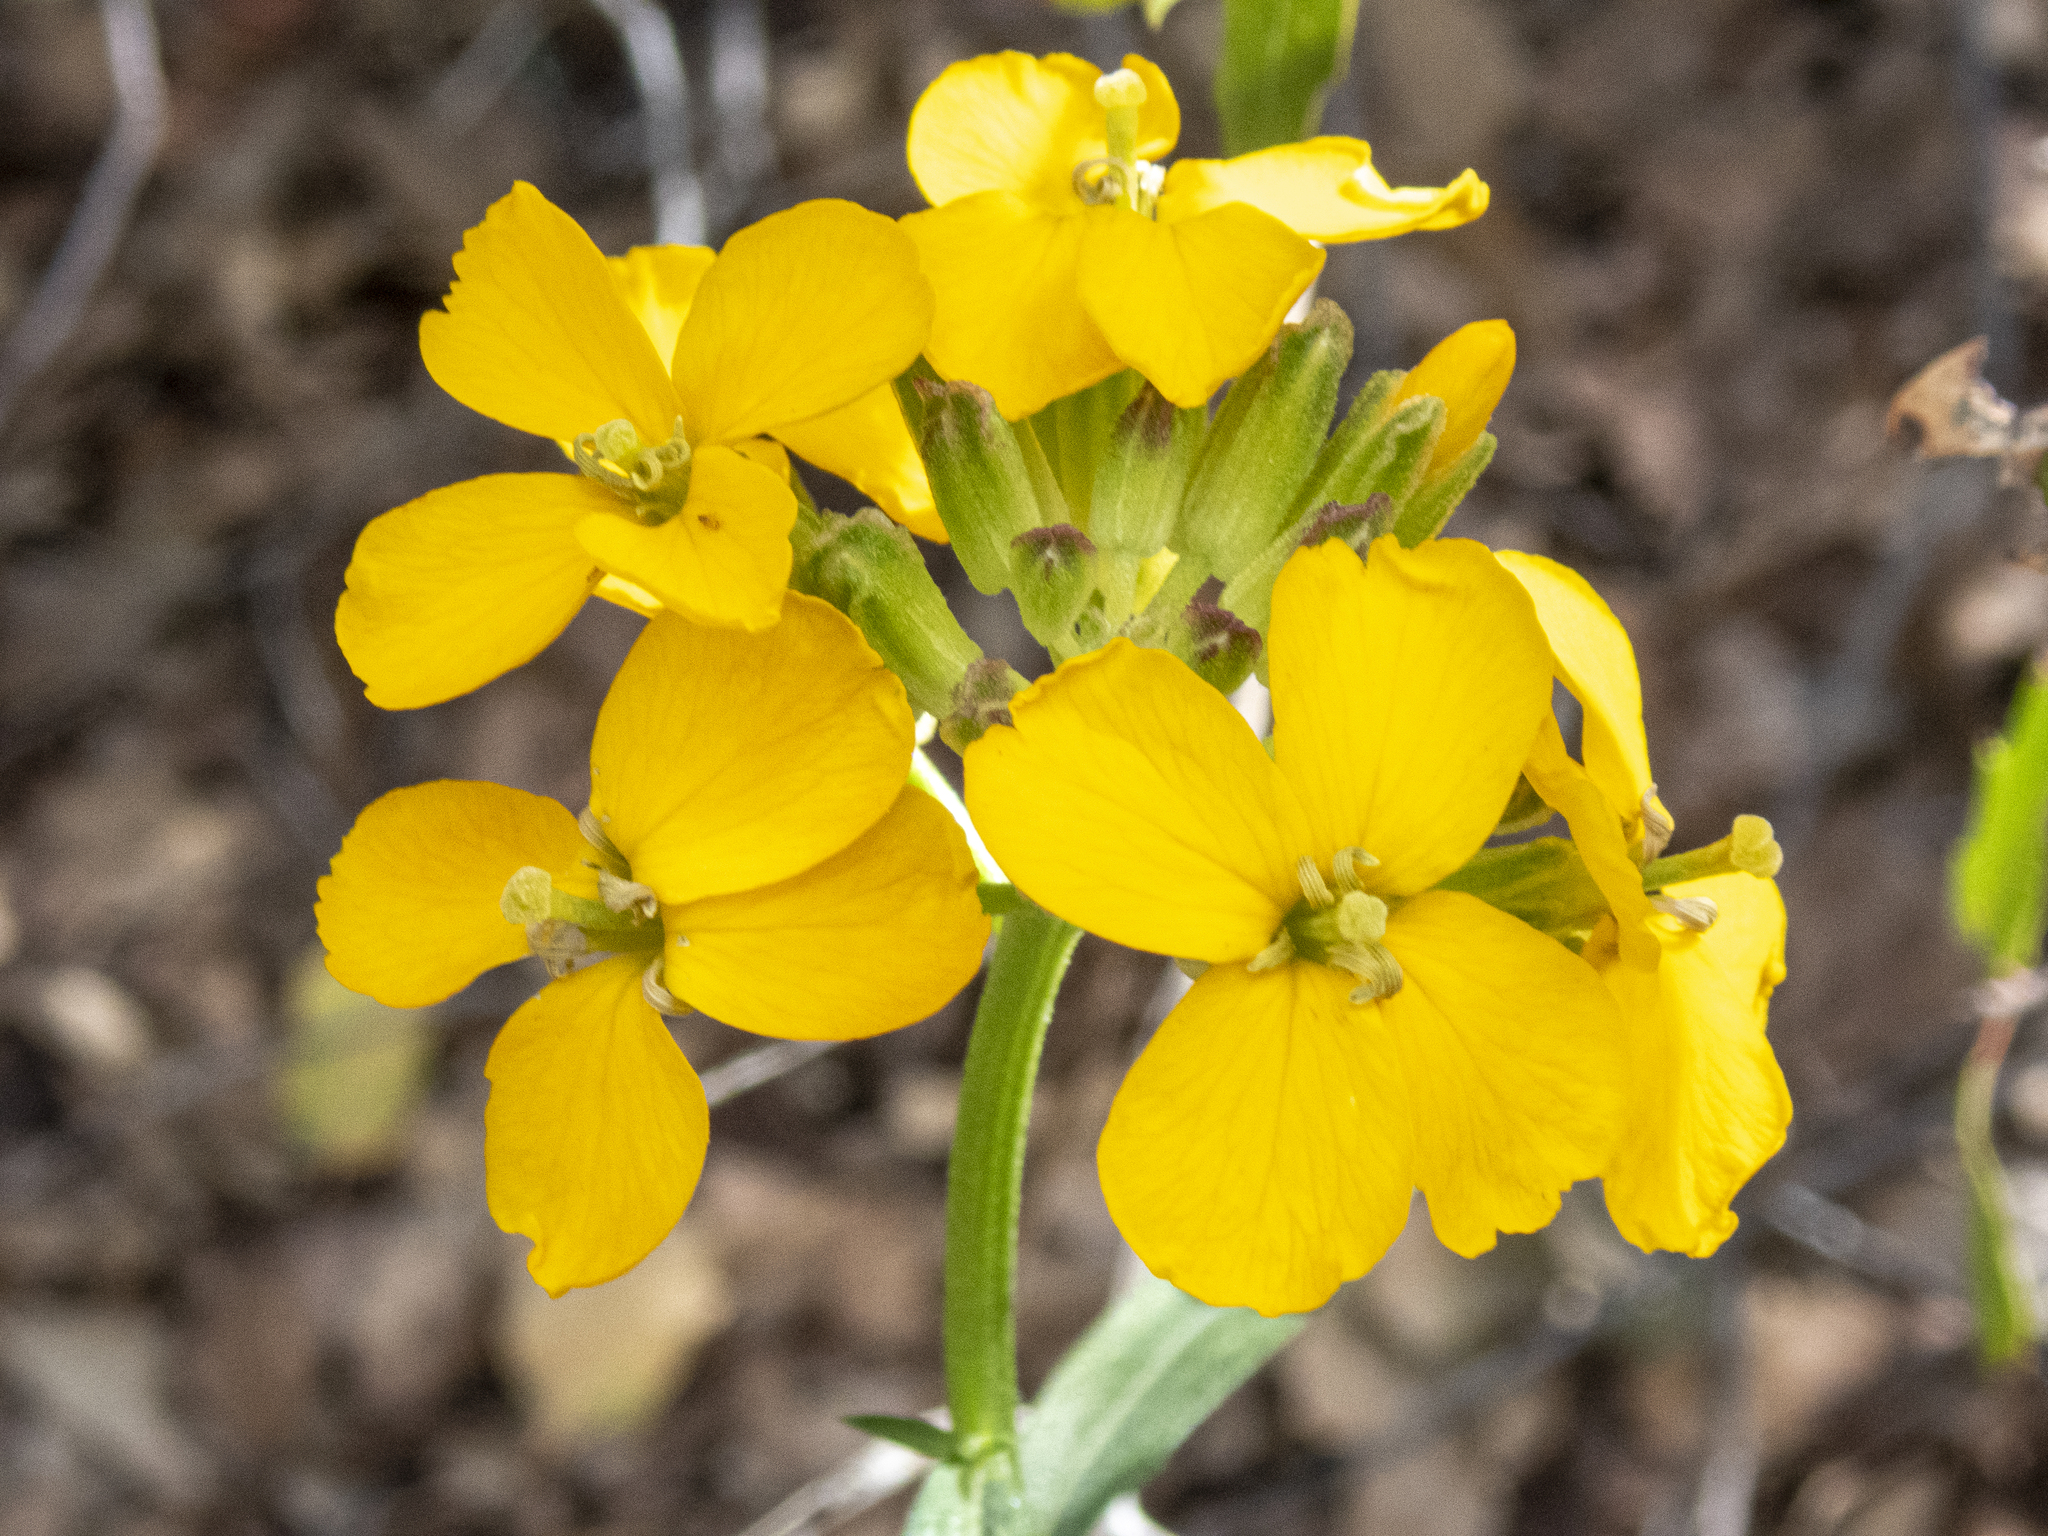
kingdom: Plantae
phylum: Tracheophyta
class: Magnoliopsida
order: Brassicales
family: Brassicaceae
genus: Erysimum
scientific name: Erysimum capitatum
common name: Western wallflower
